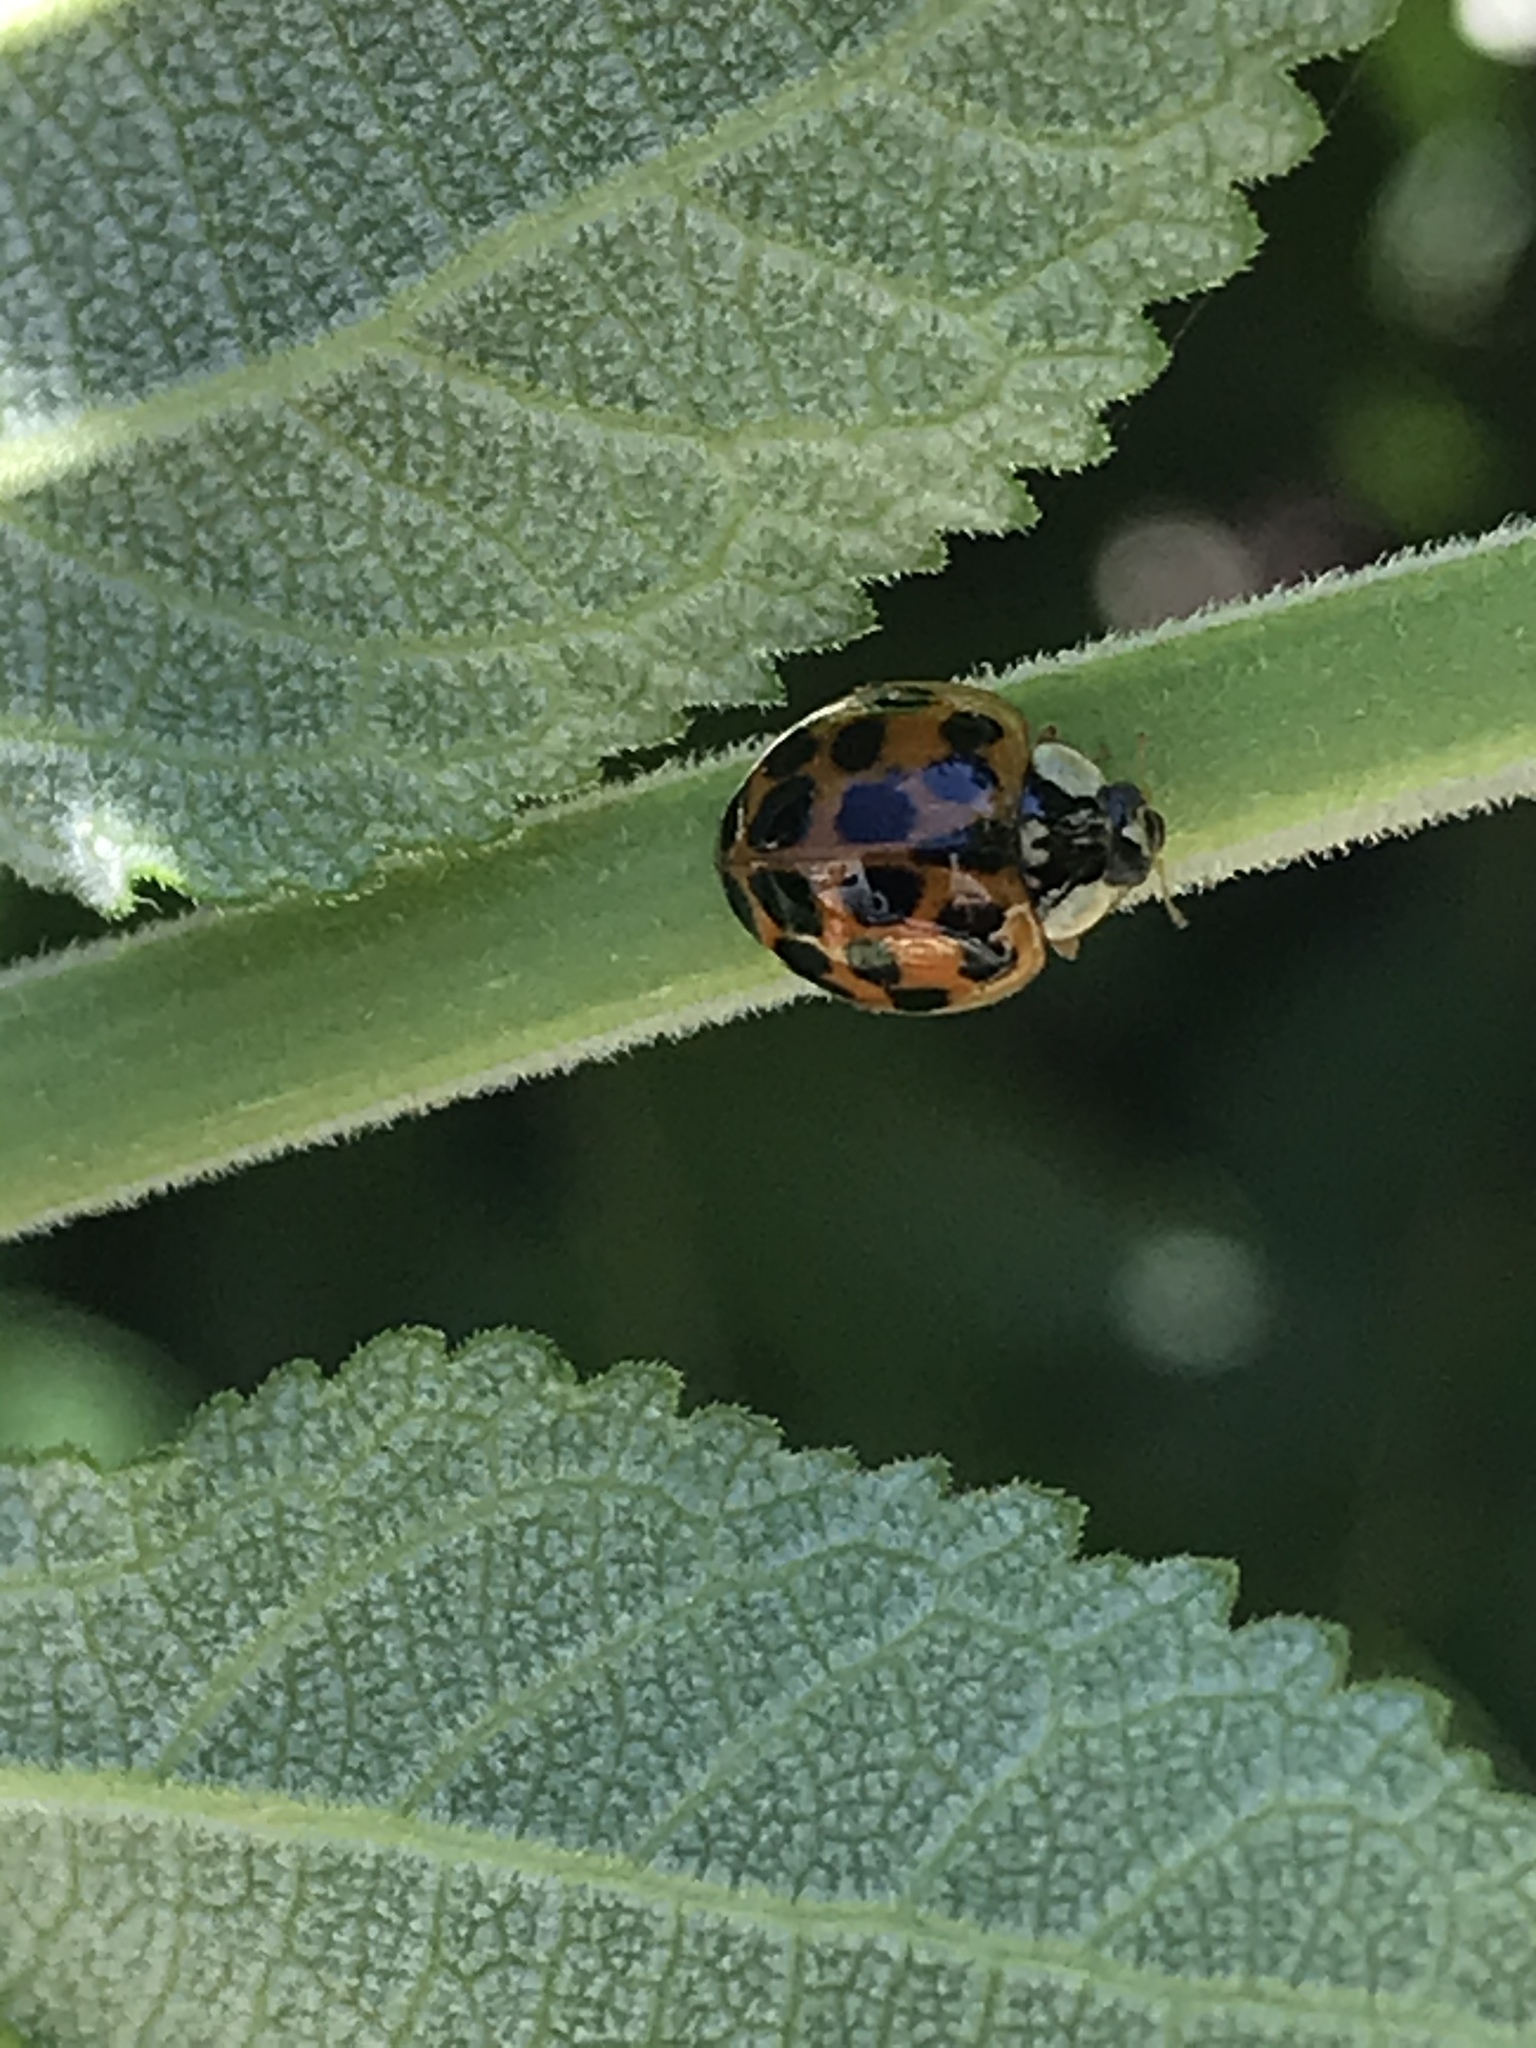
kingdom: Animalia
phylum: Arthropoda
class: Insecta
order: Coleoptera
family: Coccinellidae
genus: Harmonia
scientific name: Harmonia axyridis
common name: Harlequin ladybird
